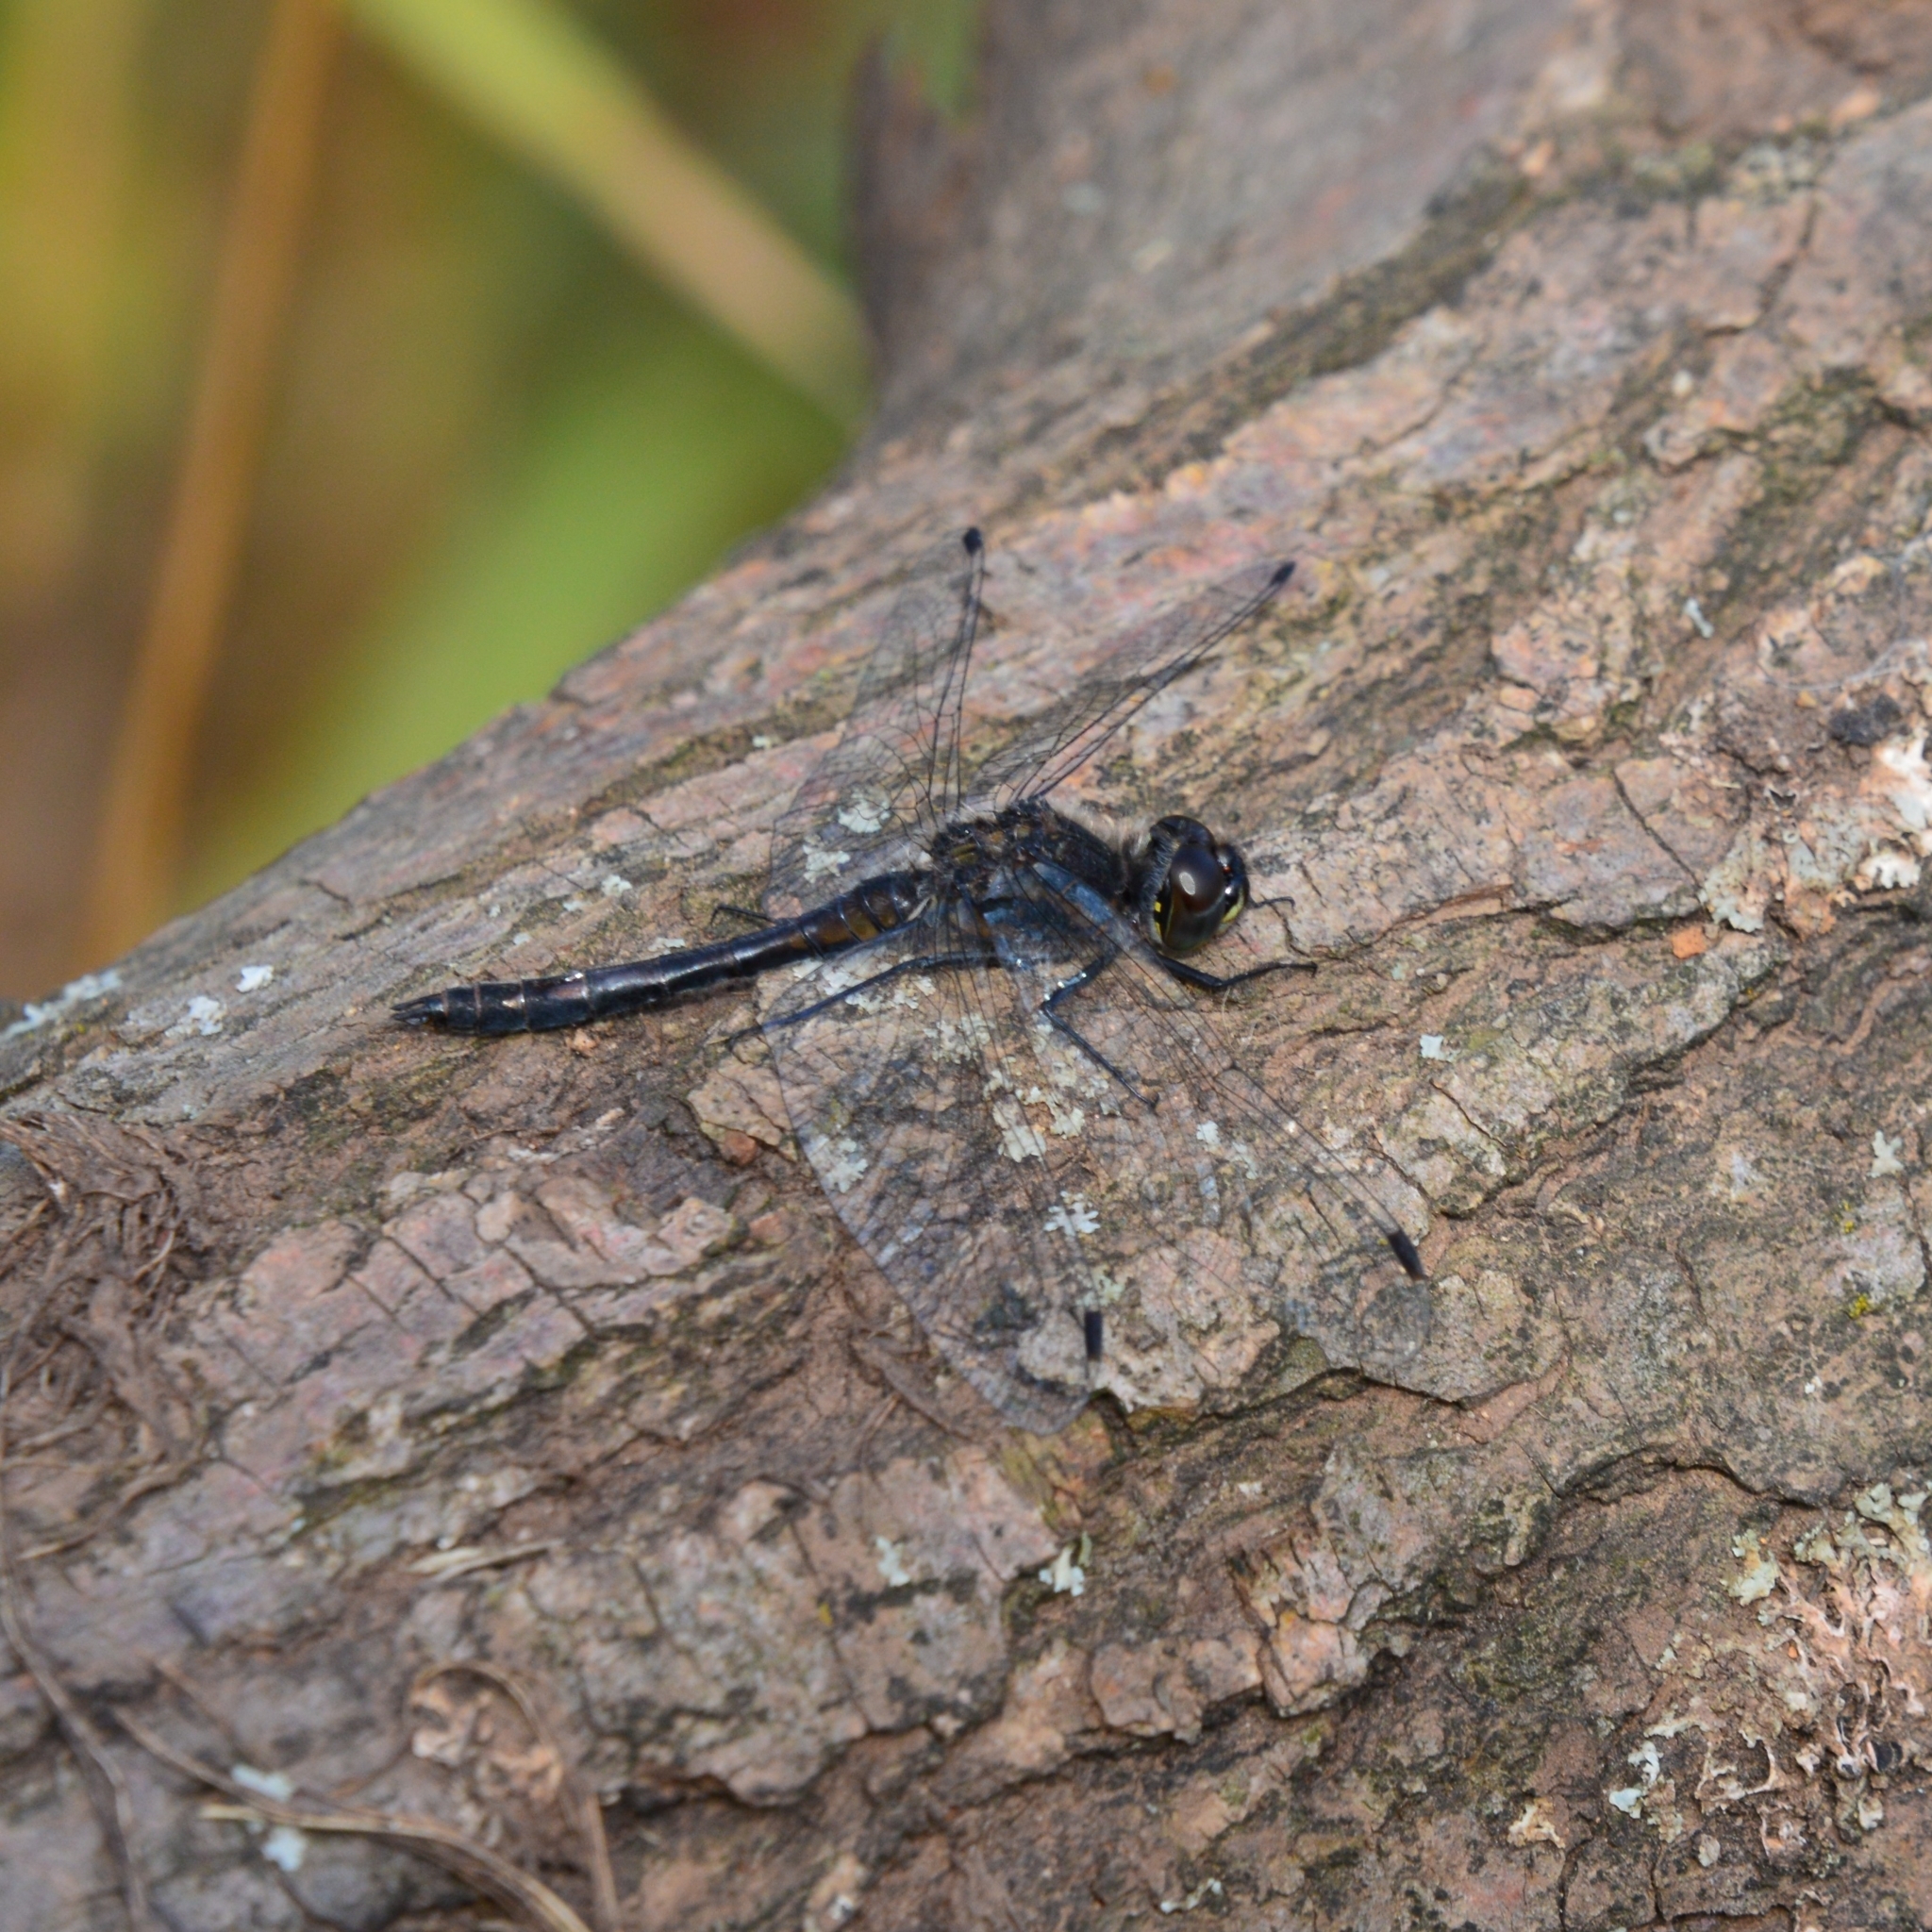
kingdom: Animalia
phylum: Arthropoda
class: Insecta
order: Odonata
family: Libellulidae
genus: Sympetrum
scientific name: Sympetrum danae
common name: Black darter
